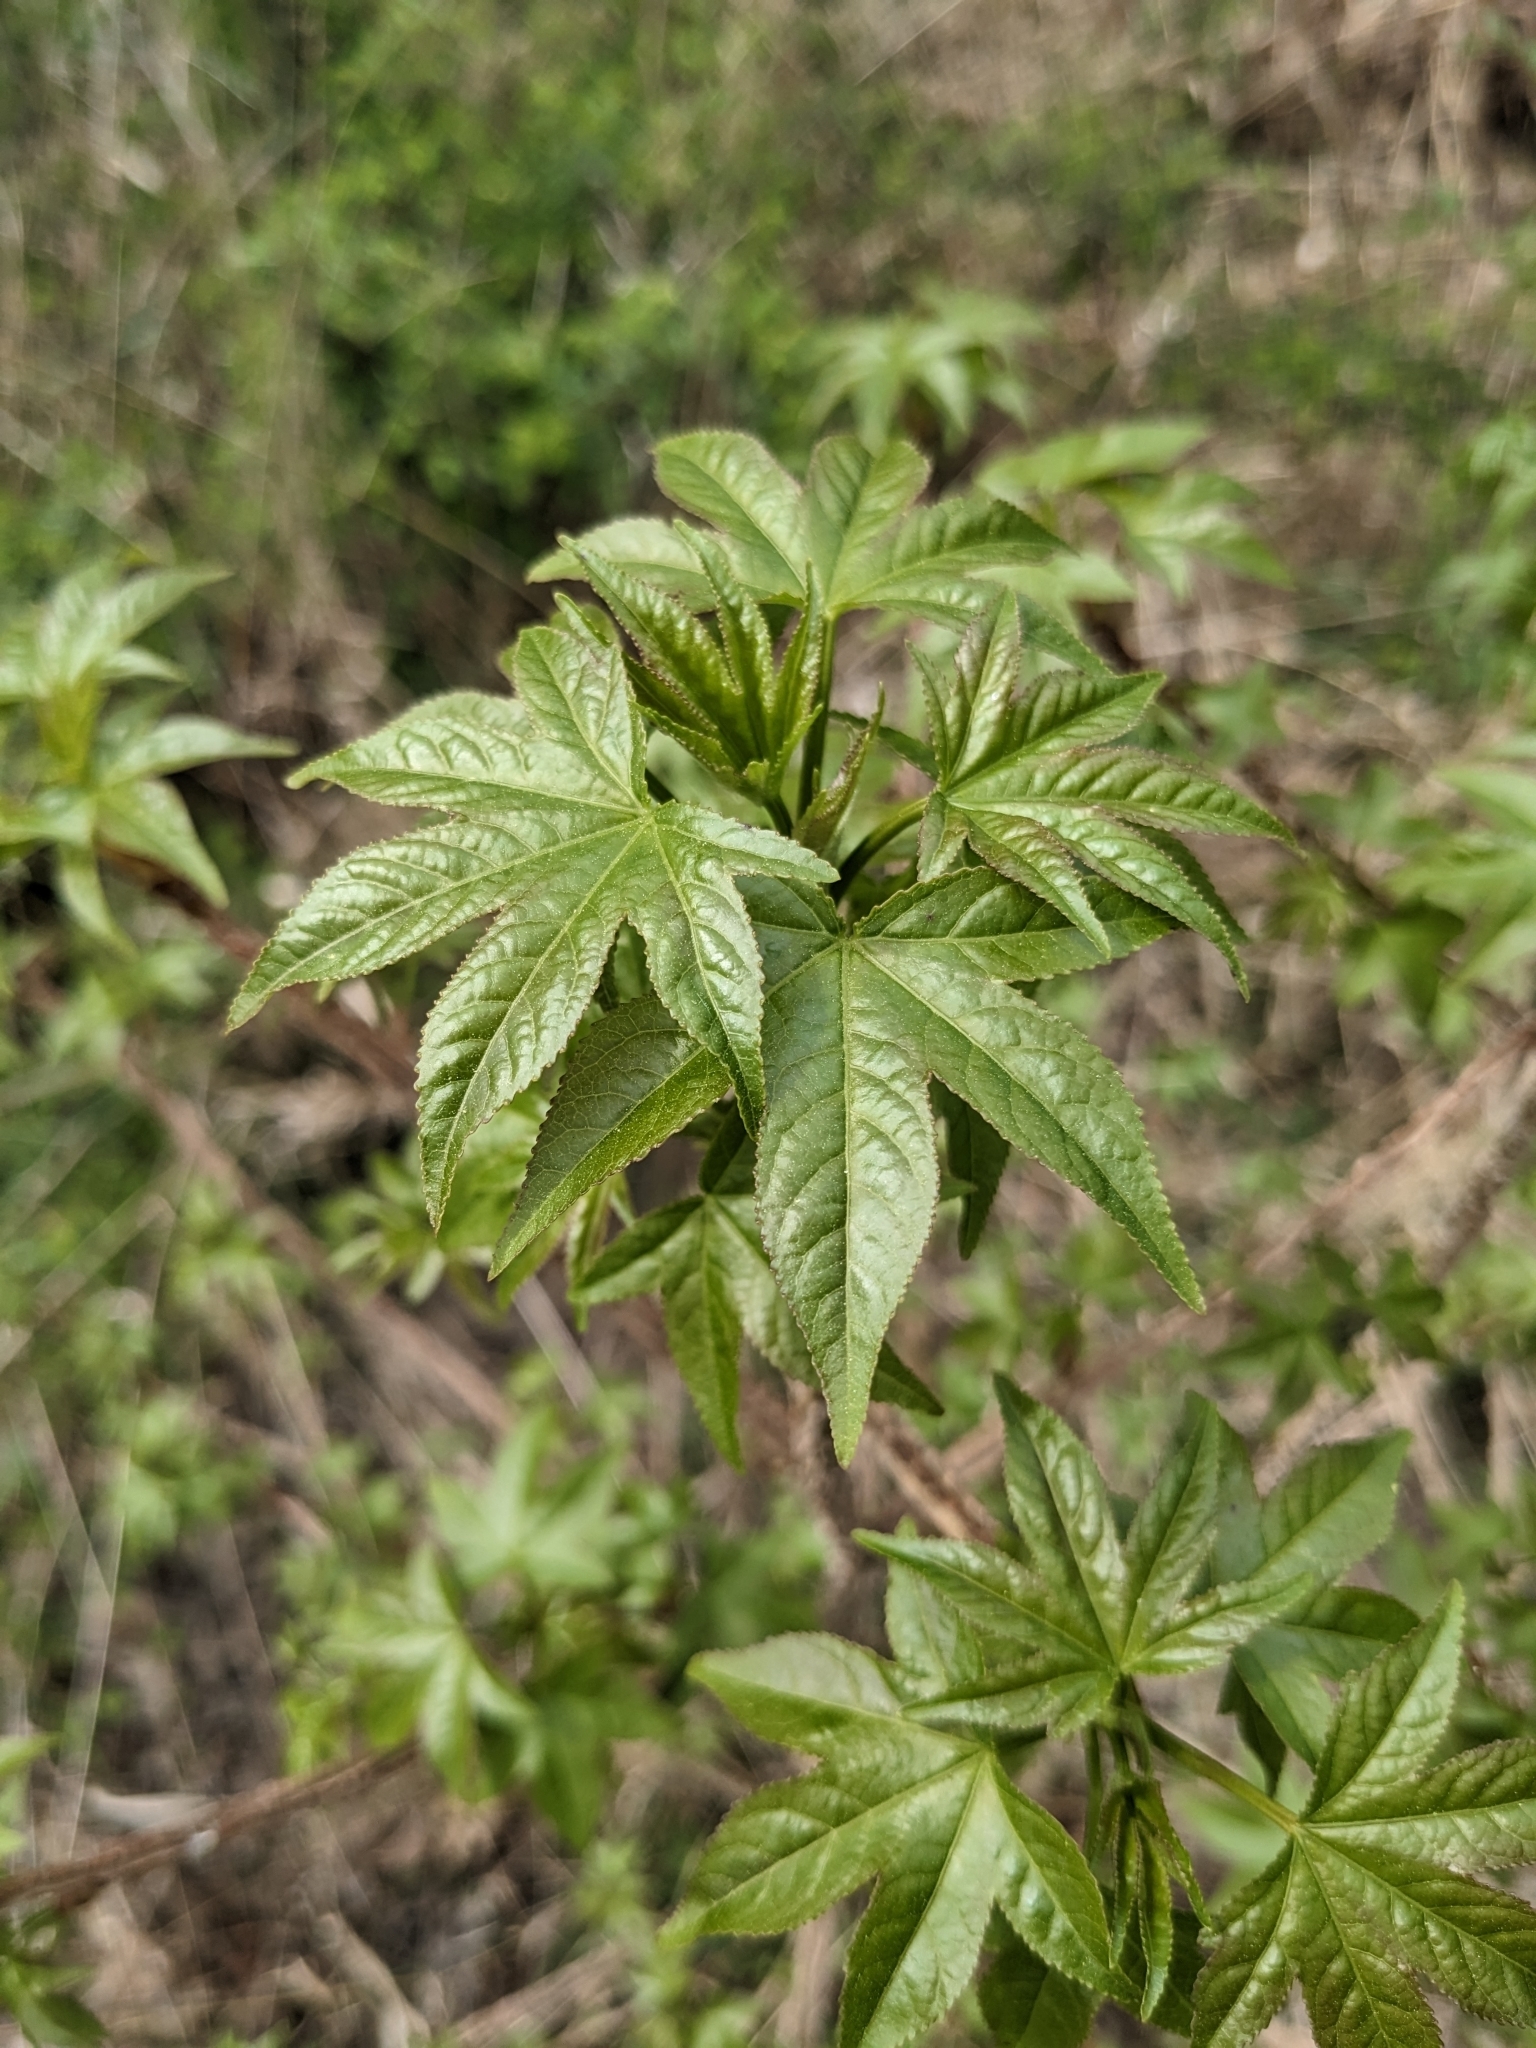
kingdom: Plantae
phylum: Tracheophyta
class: Magnoliopsida
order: Saxifragales
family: Altingiaceae
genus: Liquidambar
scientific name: Liquidambar styraciflua
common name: Sweet gum
